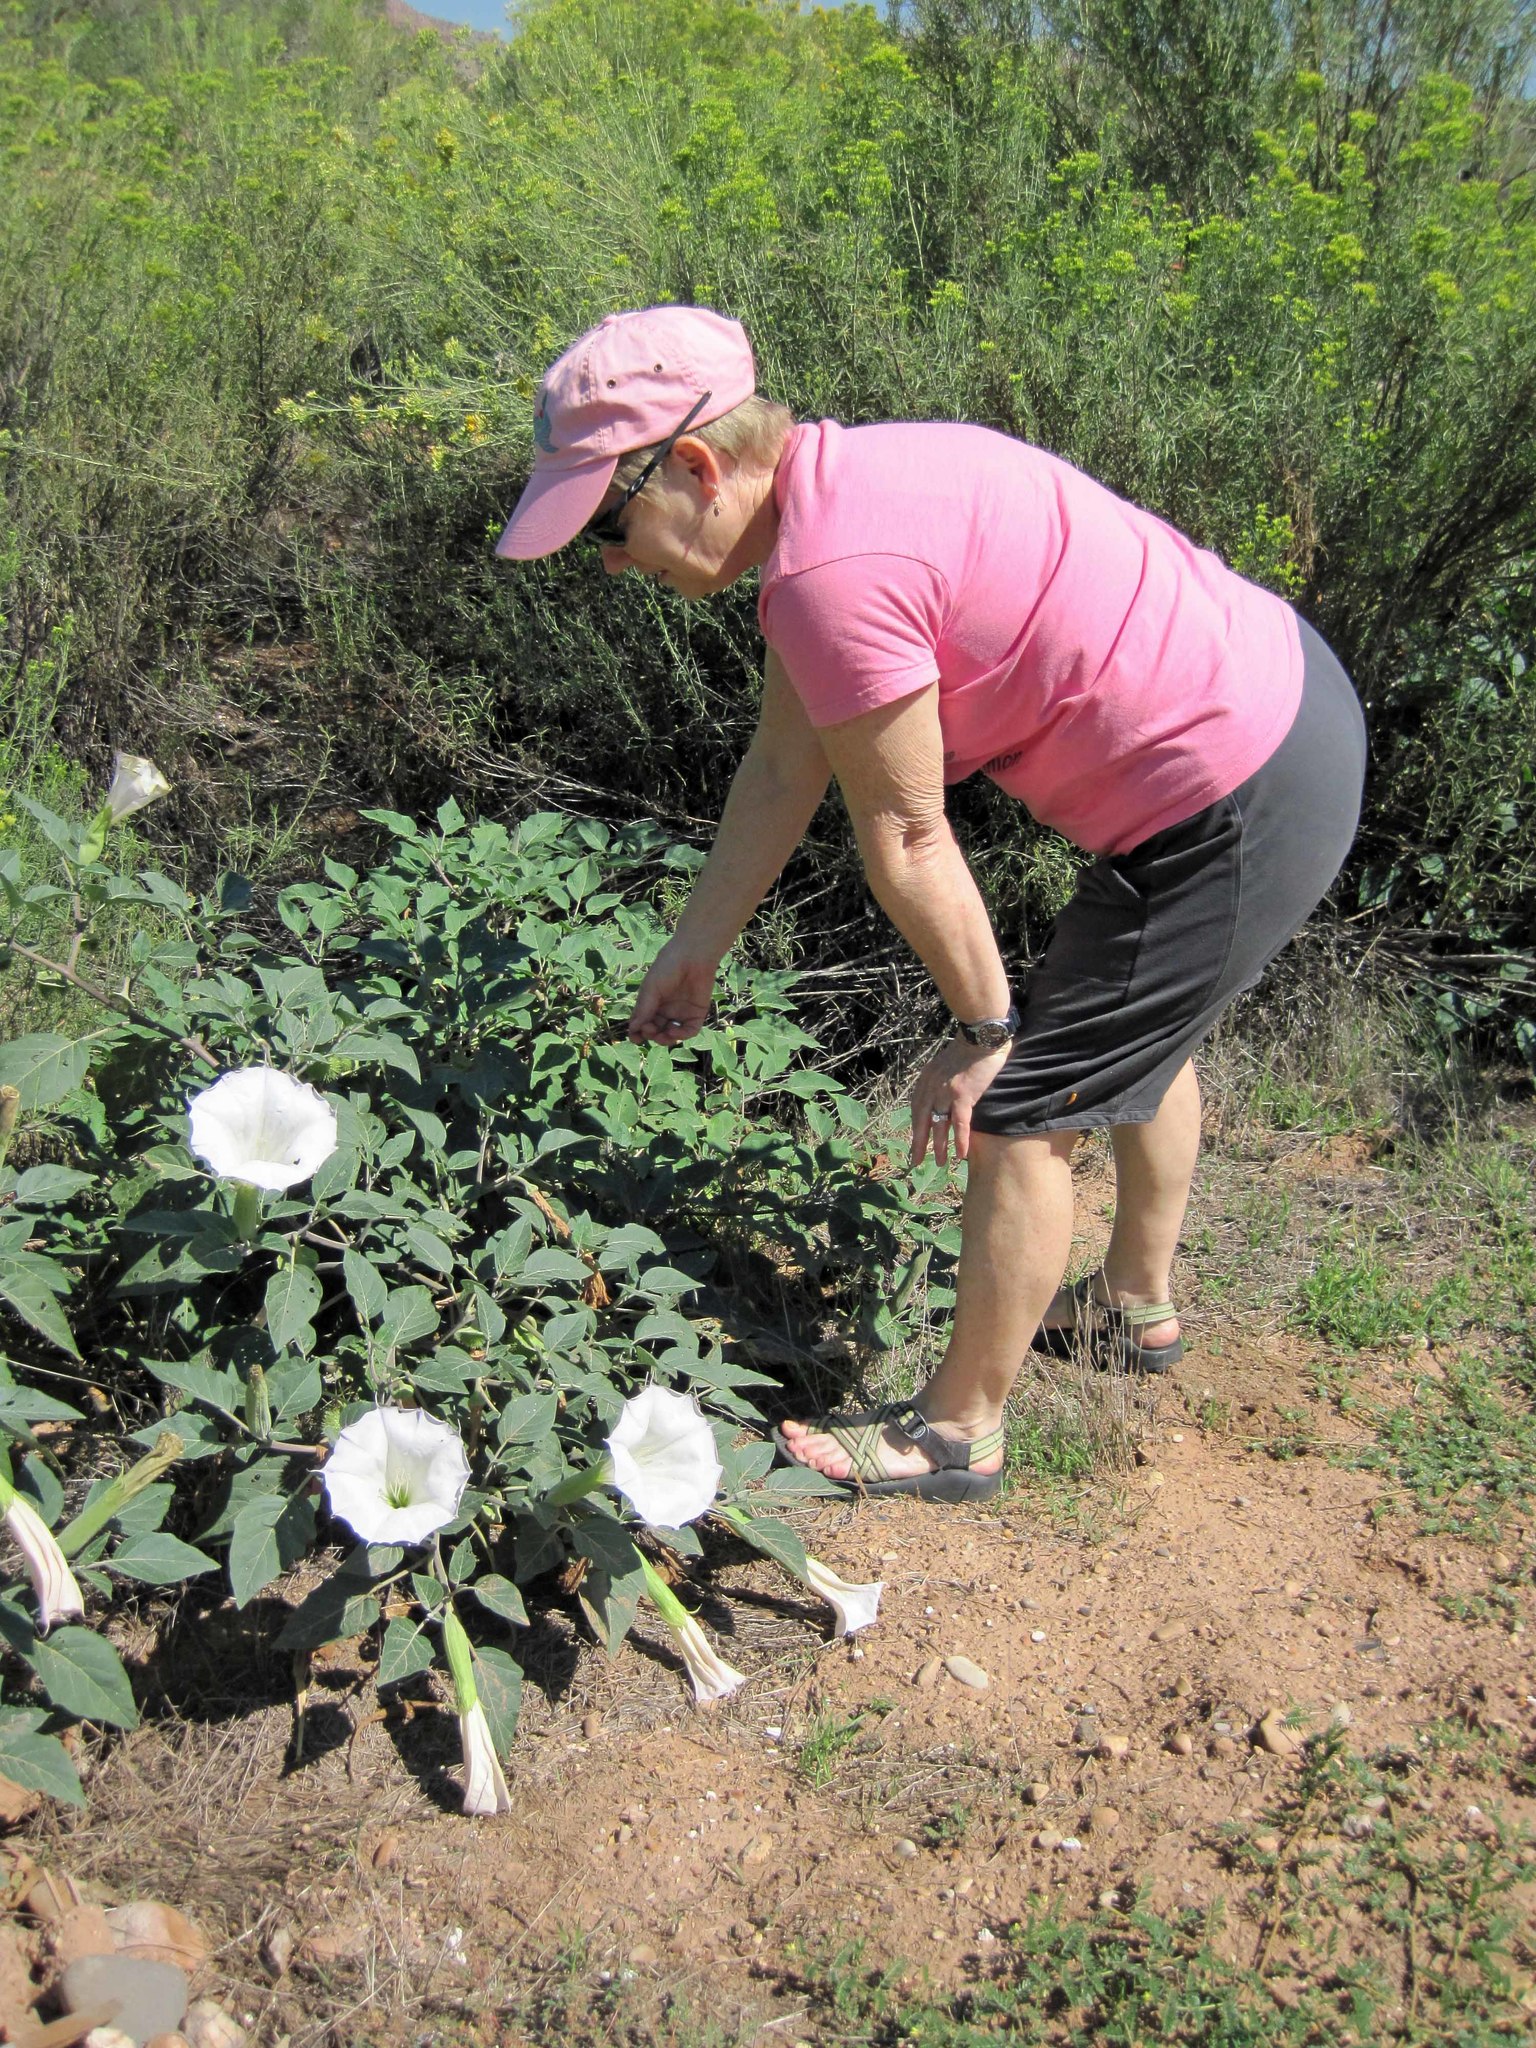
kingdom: Plantae
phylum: Tracheophyta
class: Magnoliopsida
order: Solanales
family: Solanaceae
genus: Datura
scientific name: Datura wrightii
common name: Sacred thorn-apple
